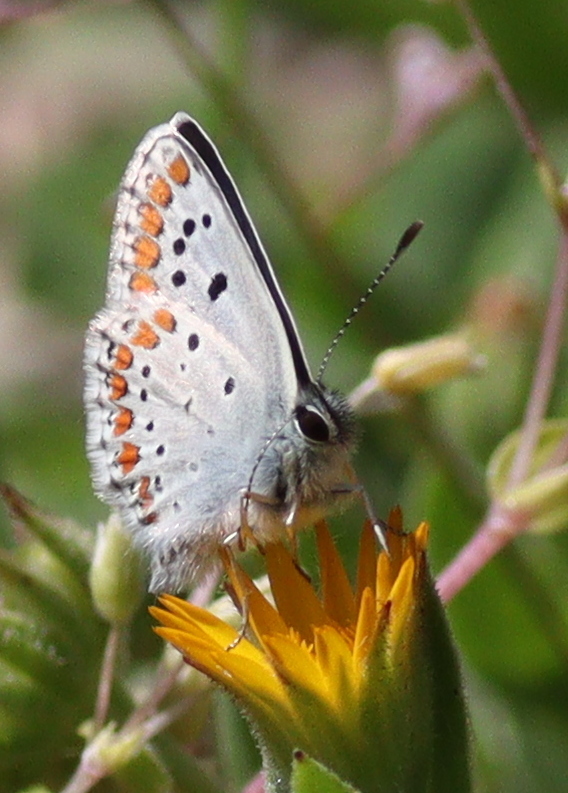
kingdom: Animalia
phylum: Arthropoda
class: Insecta
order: Lepidoptera
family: Lycaenidae
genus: Aricia
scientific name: Aricia agestis
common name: Brown argus
